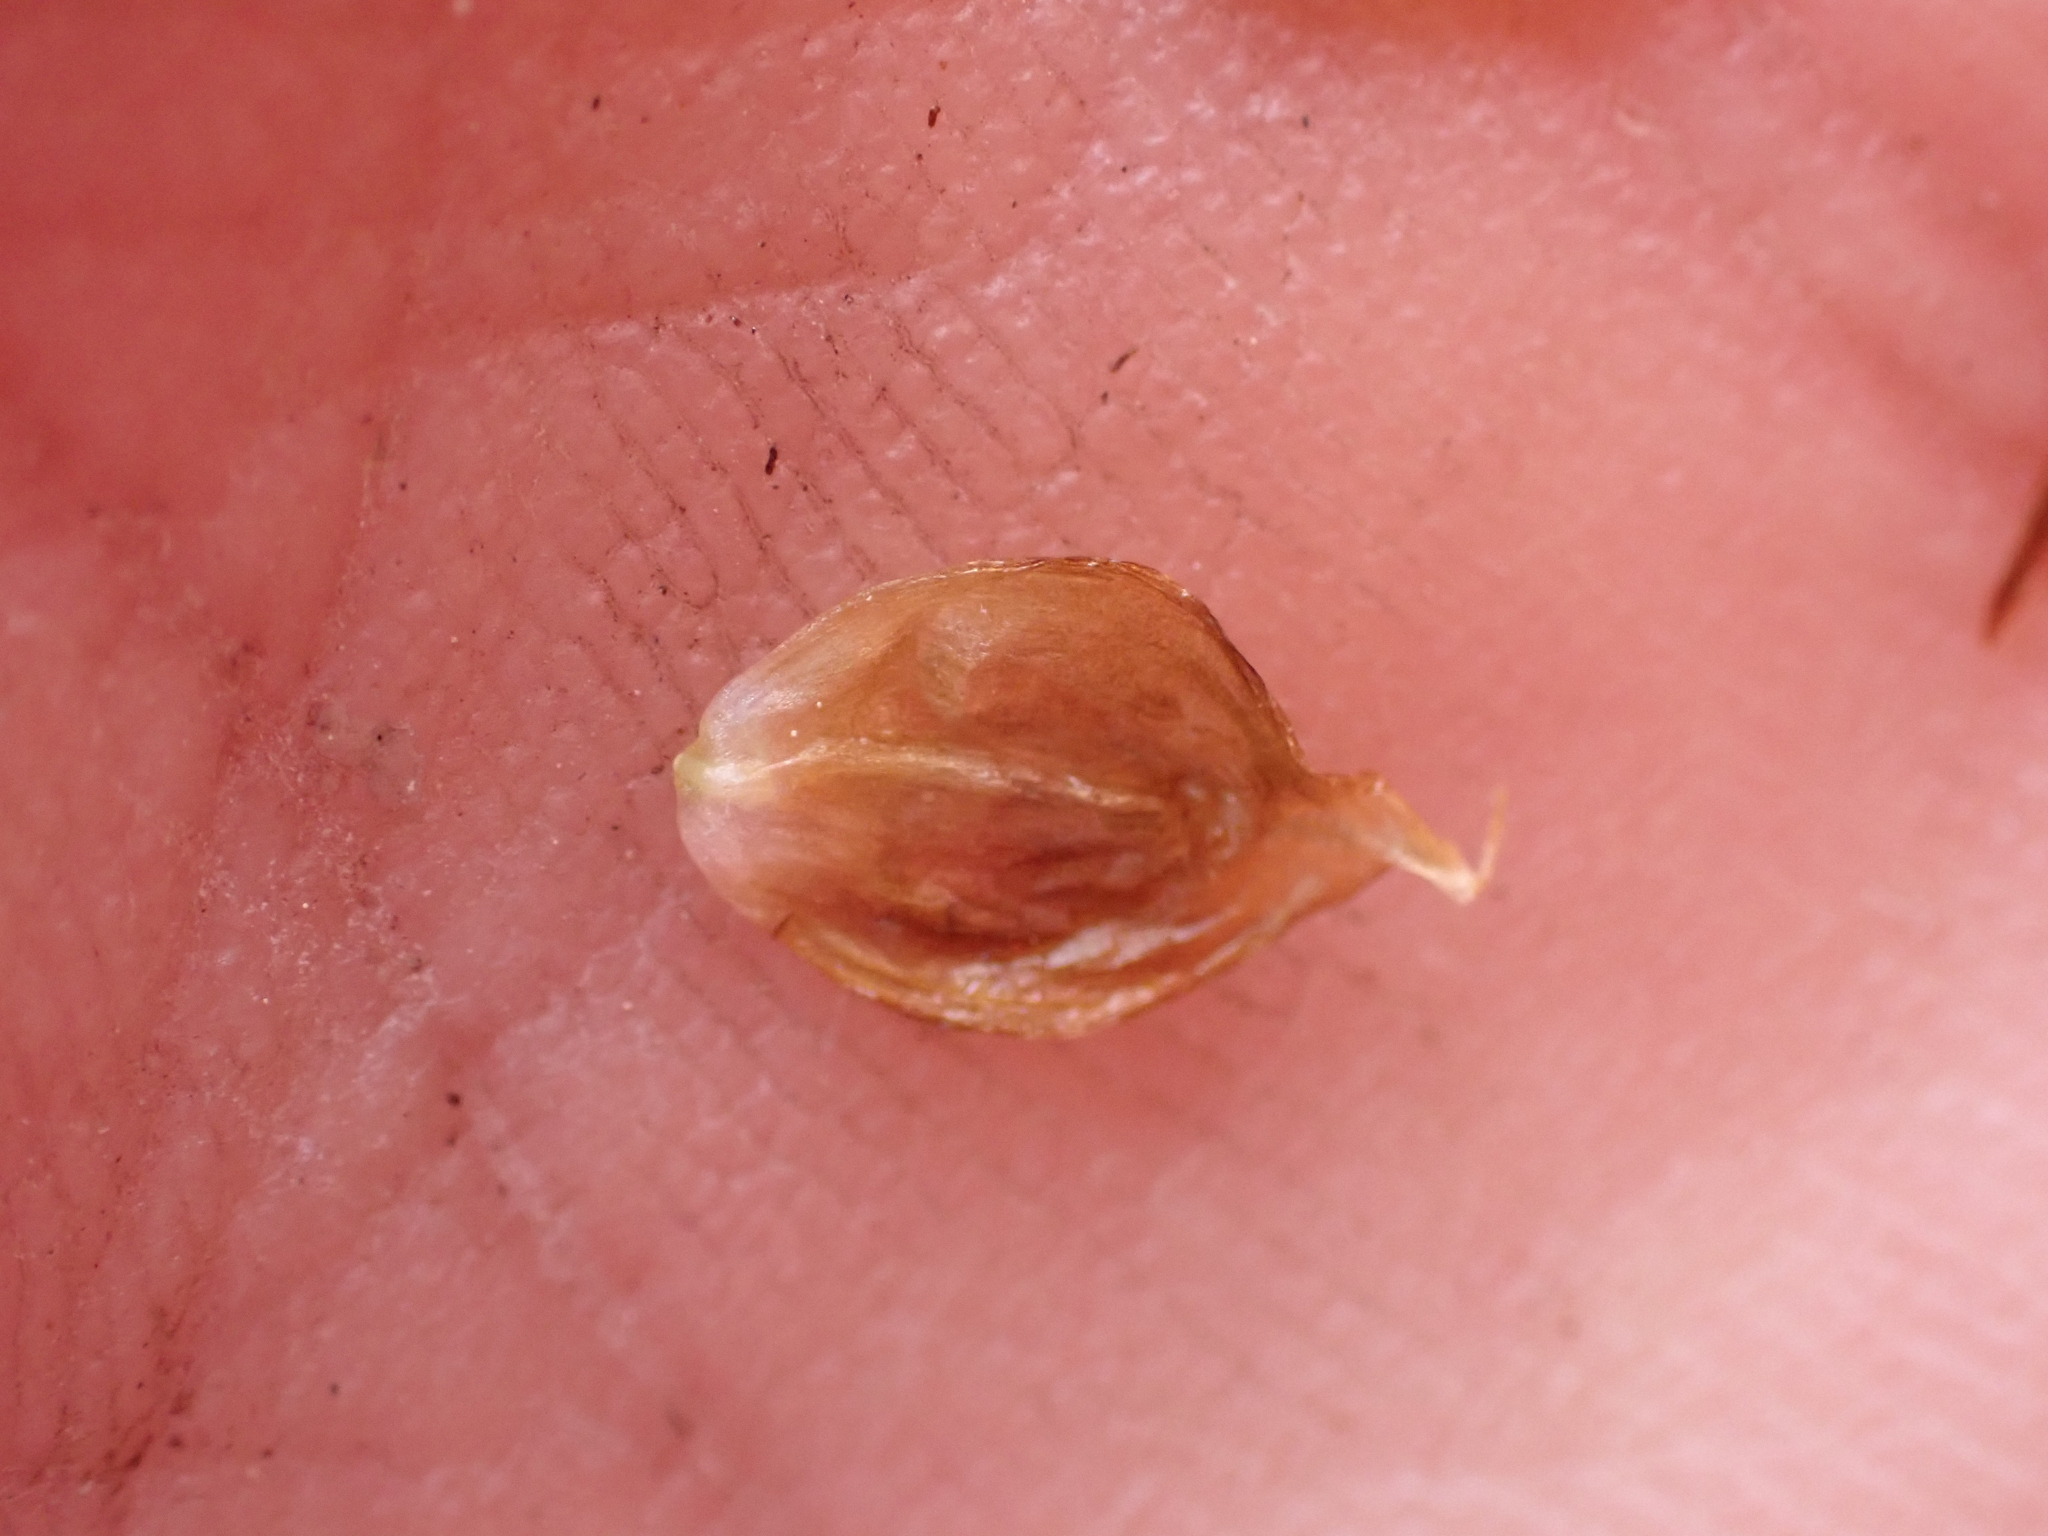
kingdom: Plantae
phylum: Tracheophyta
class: Liliopsida
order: Poales
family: Cyperaceae
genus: Carex
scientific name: Carex breweri
